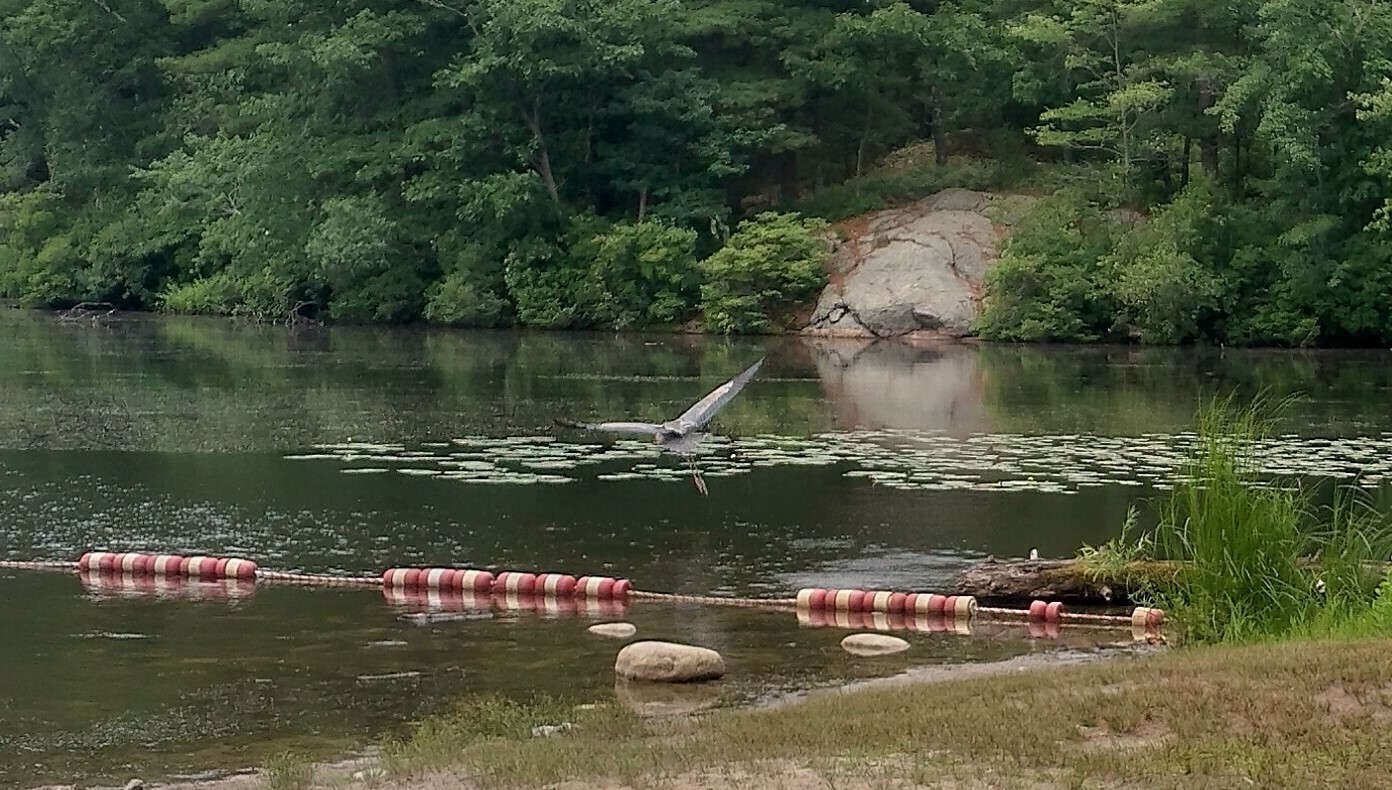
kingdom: Animalia
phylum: Chordata
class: Aves
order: Pelecaniformes
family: Ardeidae
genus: Ardea
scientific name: Ardea herodias
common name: Great blue heron
